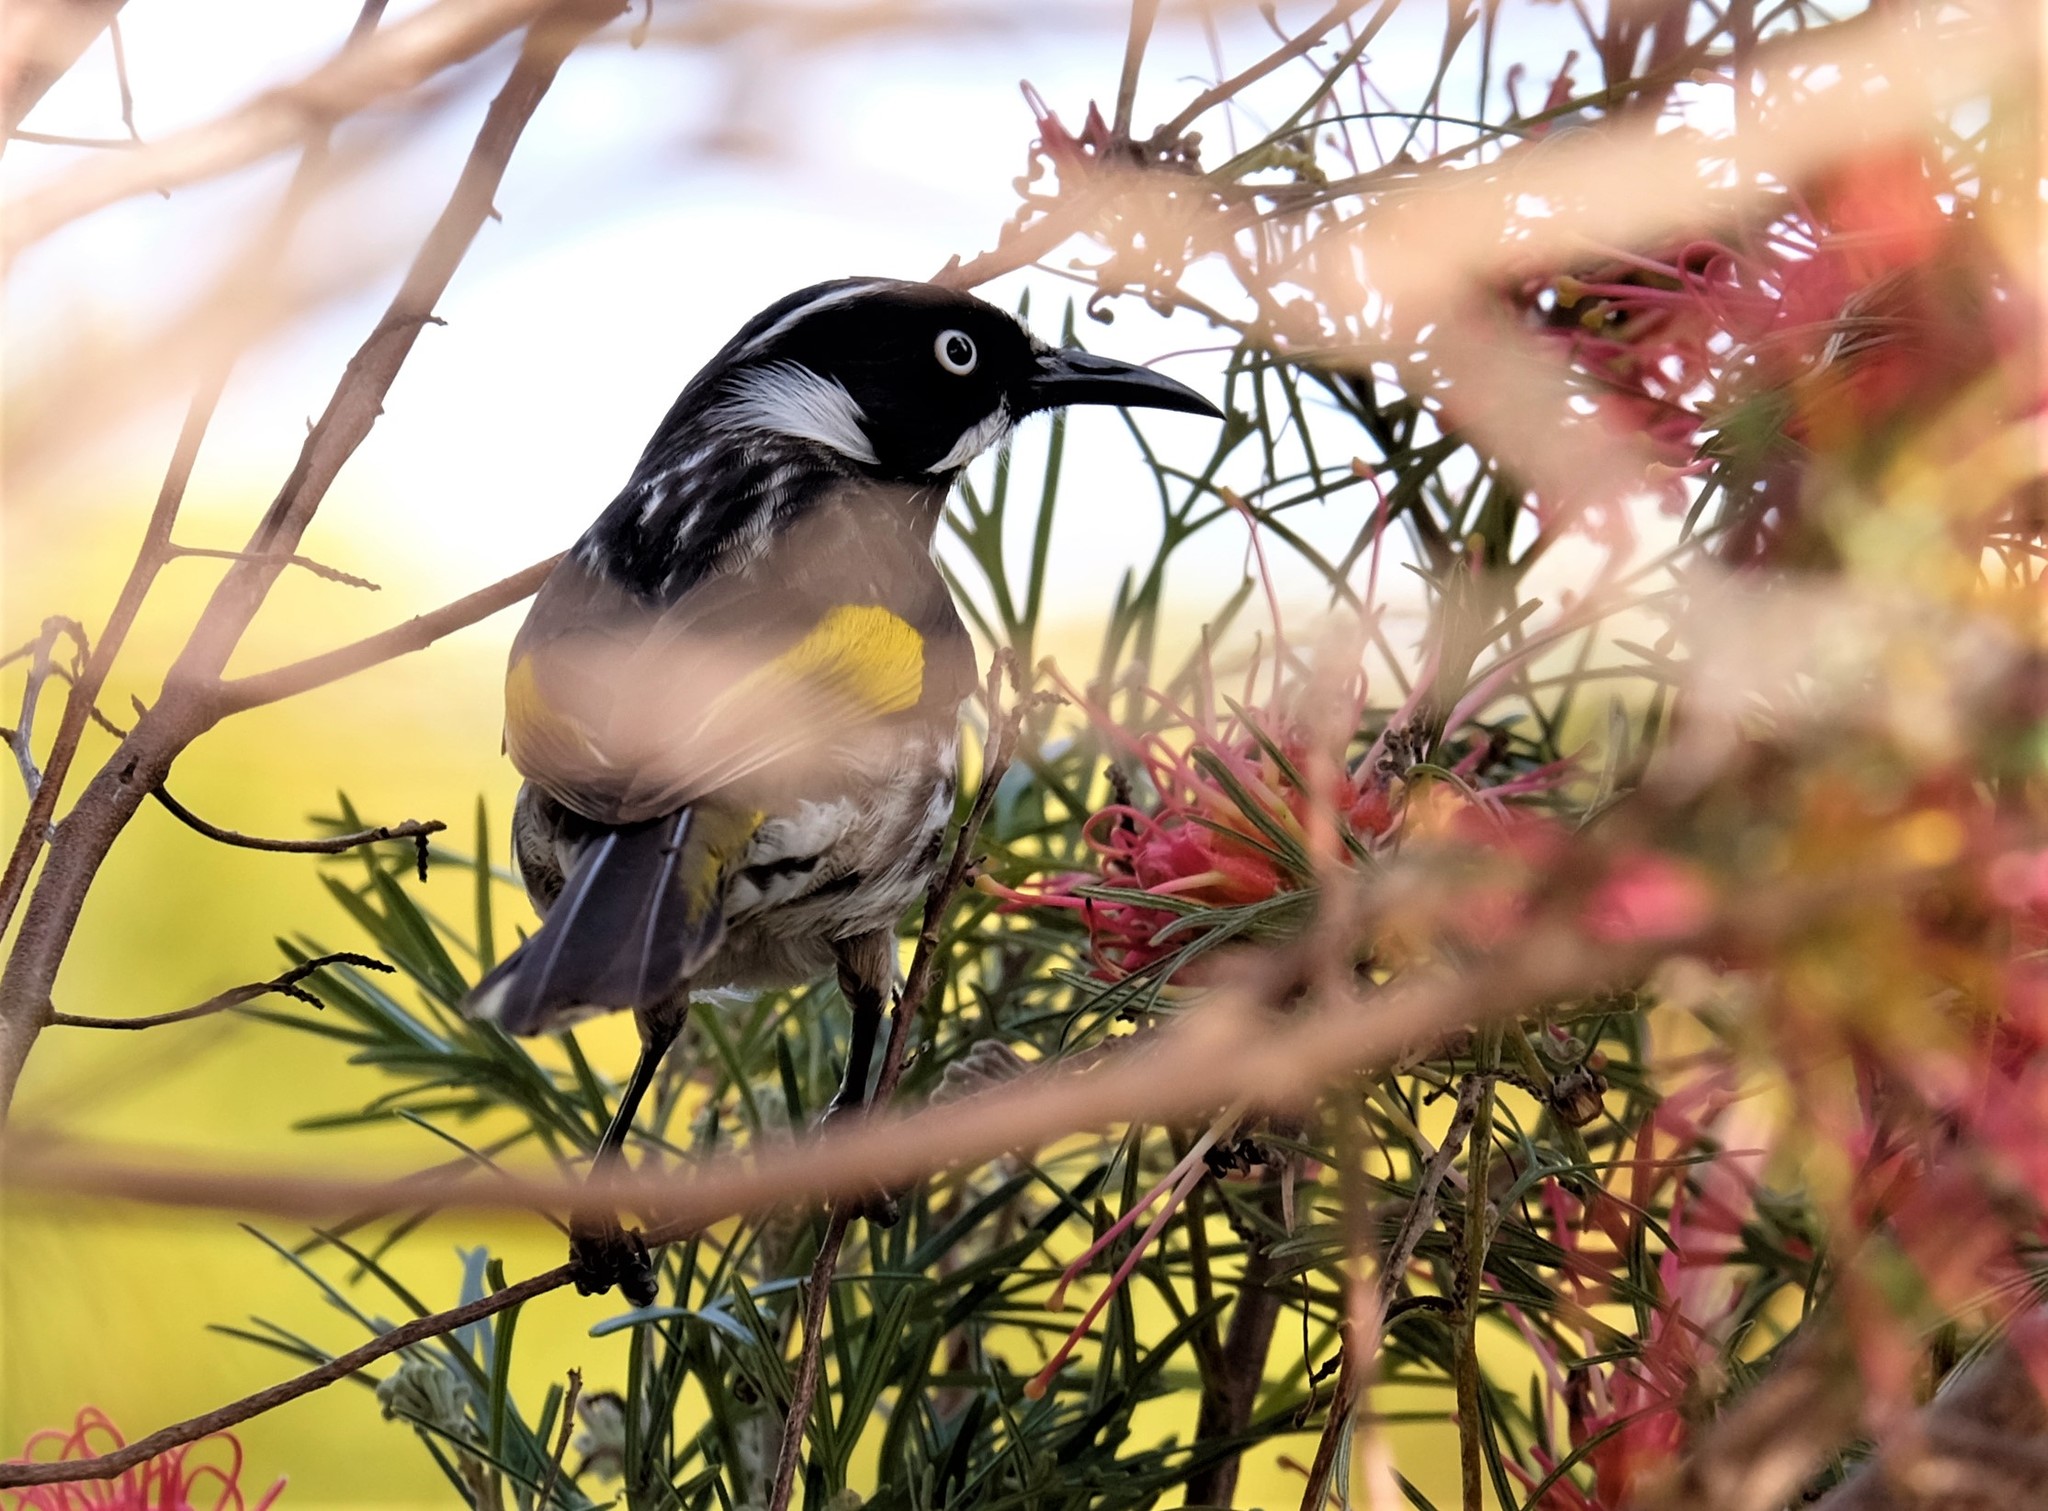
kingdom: Animalia
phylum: Chordata
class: Aves
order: Passeriformes
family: Meliphagidae
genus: Phylidonyris
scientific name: Phylidonyris novaehollandiae
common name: New holland honeyeater
